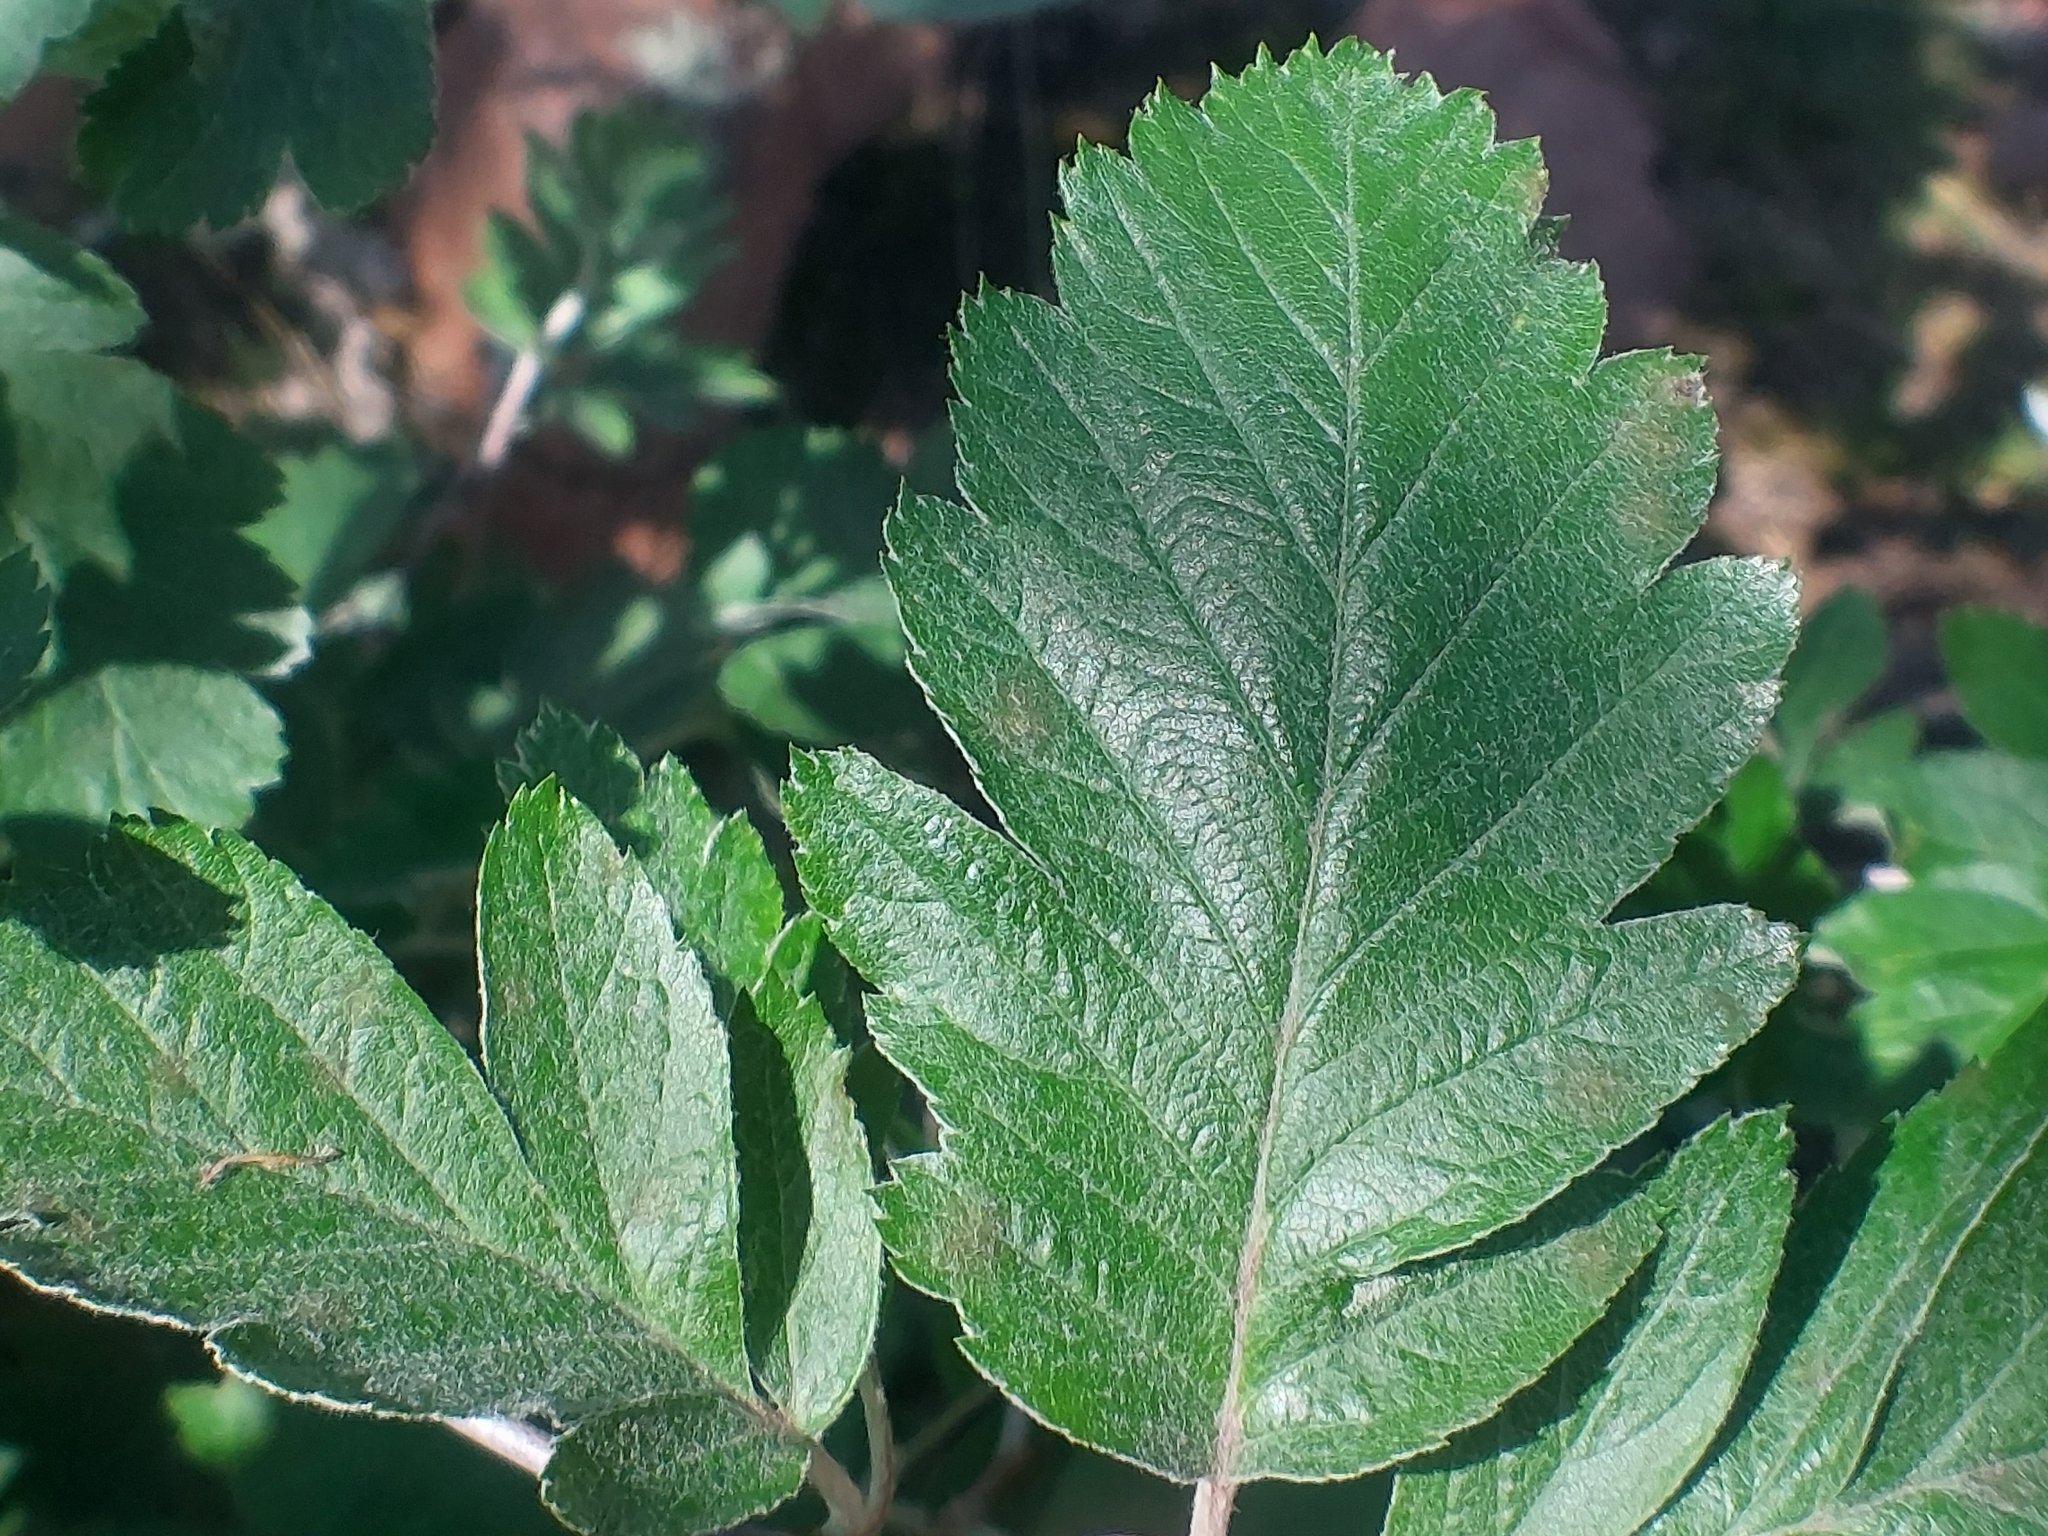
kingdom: Plantae
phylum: Tracheophyta
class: Magnoliopsida
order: Rosales
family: Rosaceae
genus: Hedlundia
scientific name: Hedlundia hybrida
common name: Swedish service-tree
